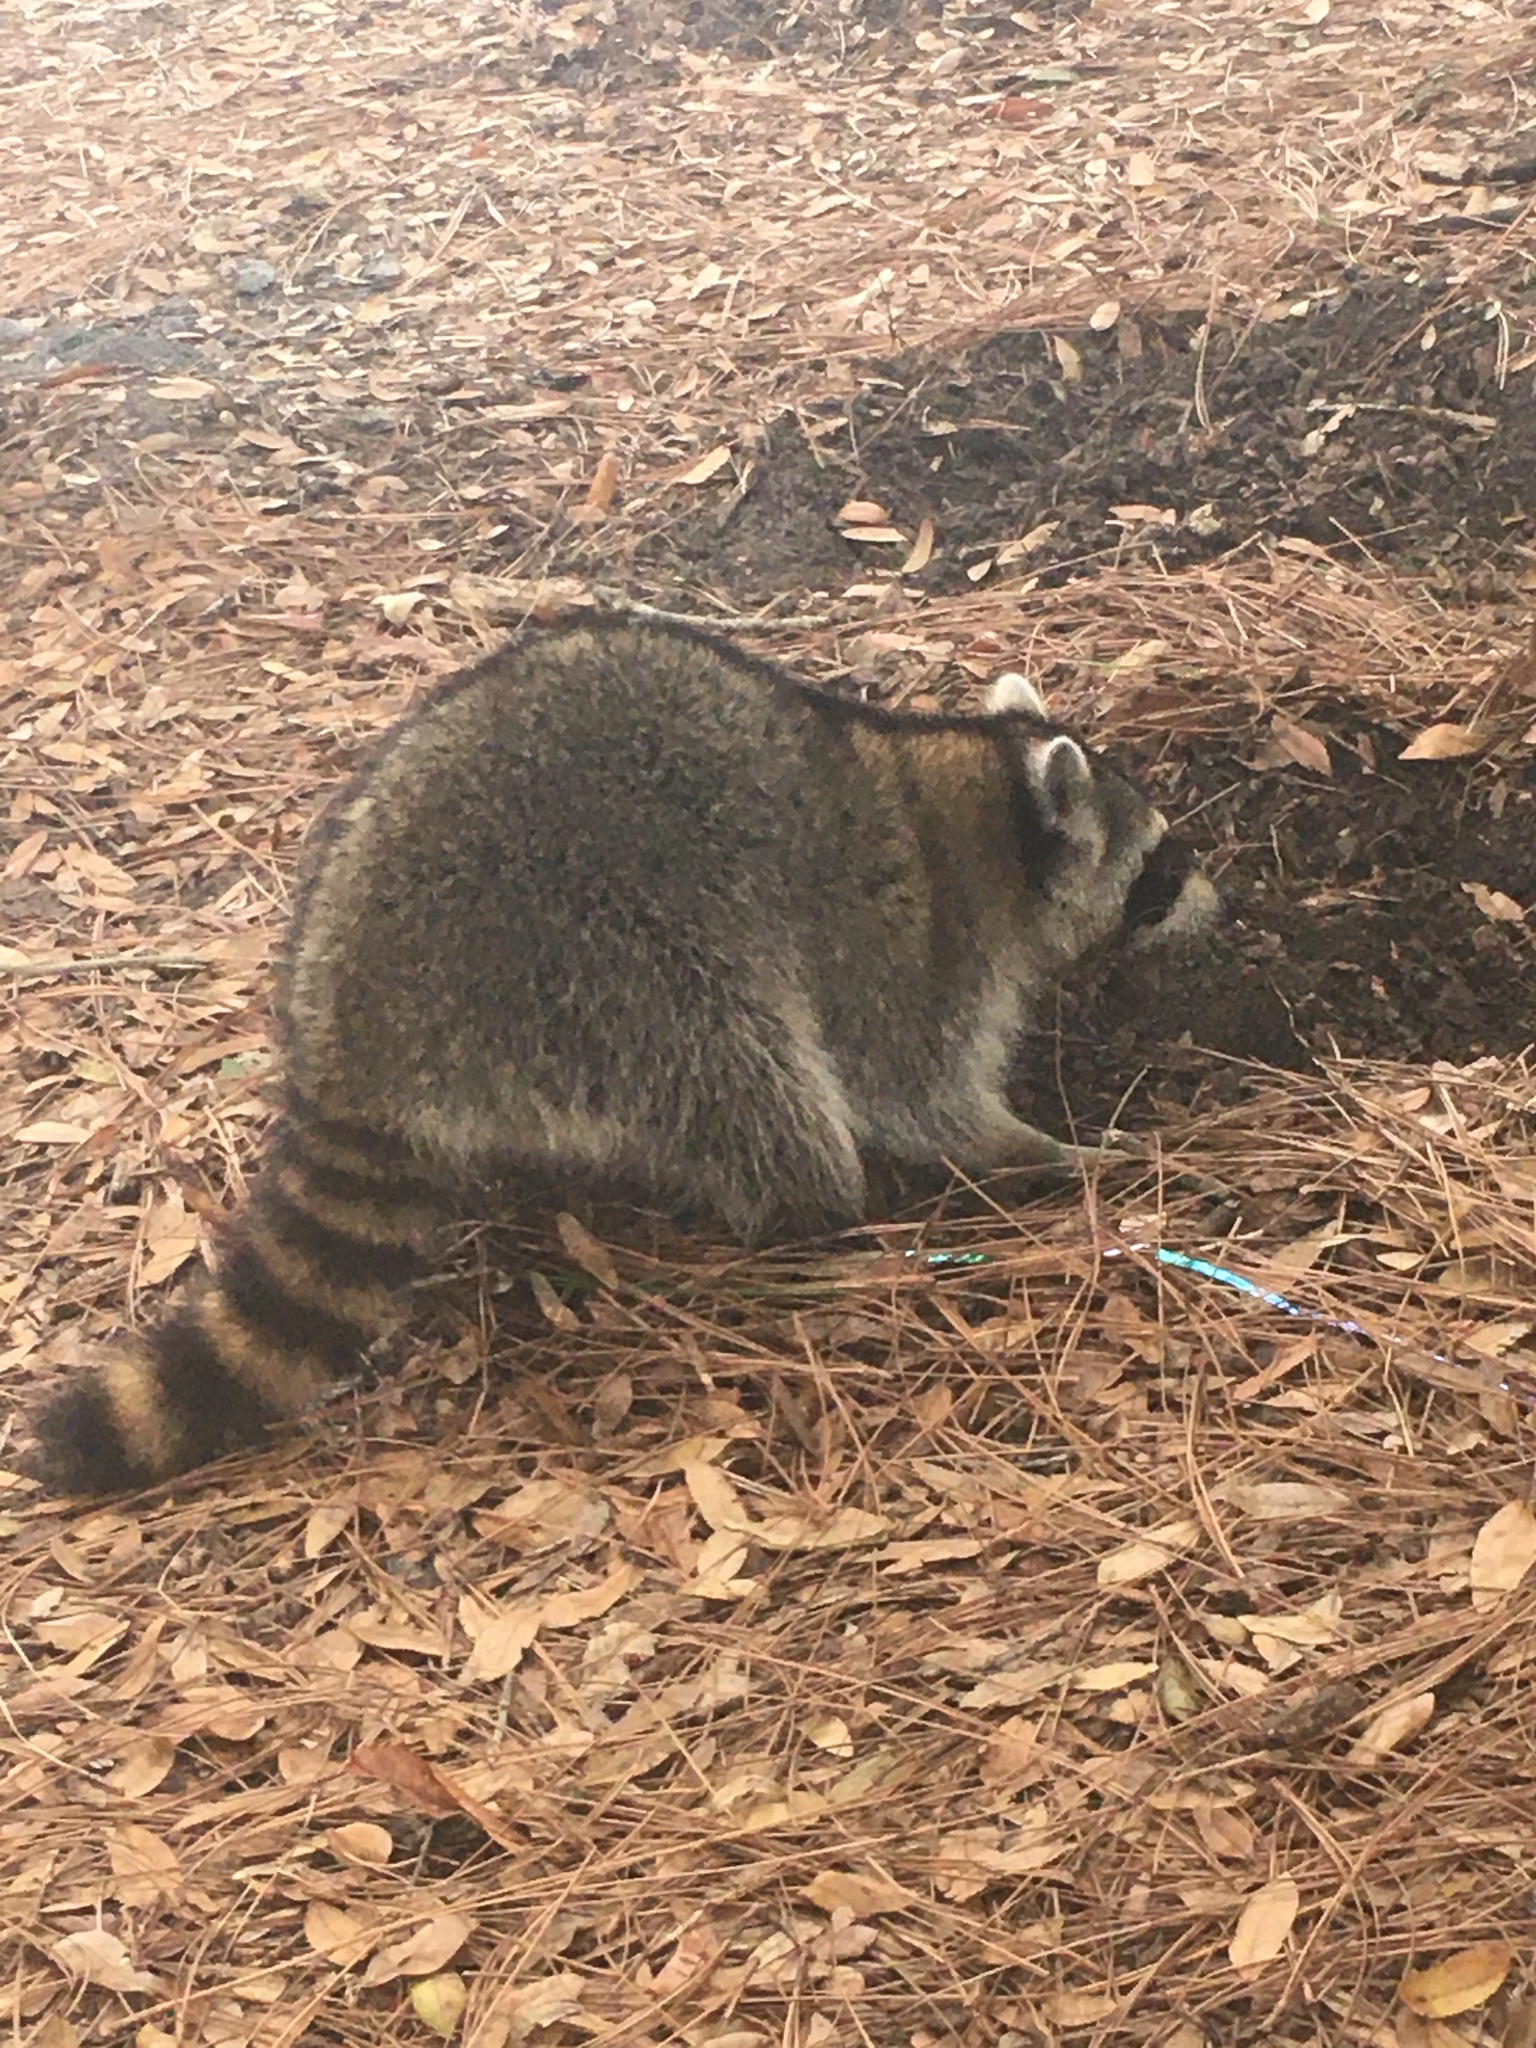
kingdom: Animalia
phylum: Chordata
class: Mammalia
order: Carnivora
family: Procyonidae
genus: Procyon
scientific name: Procyon lotor
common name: Raccoon
